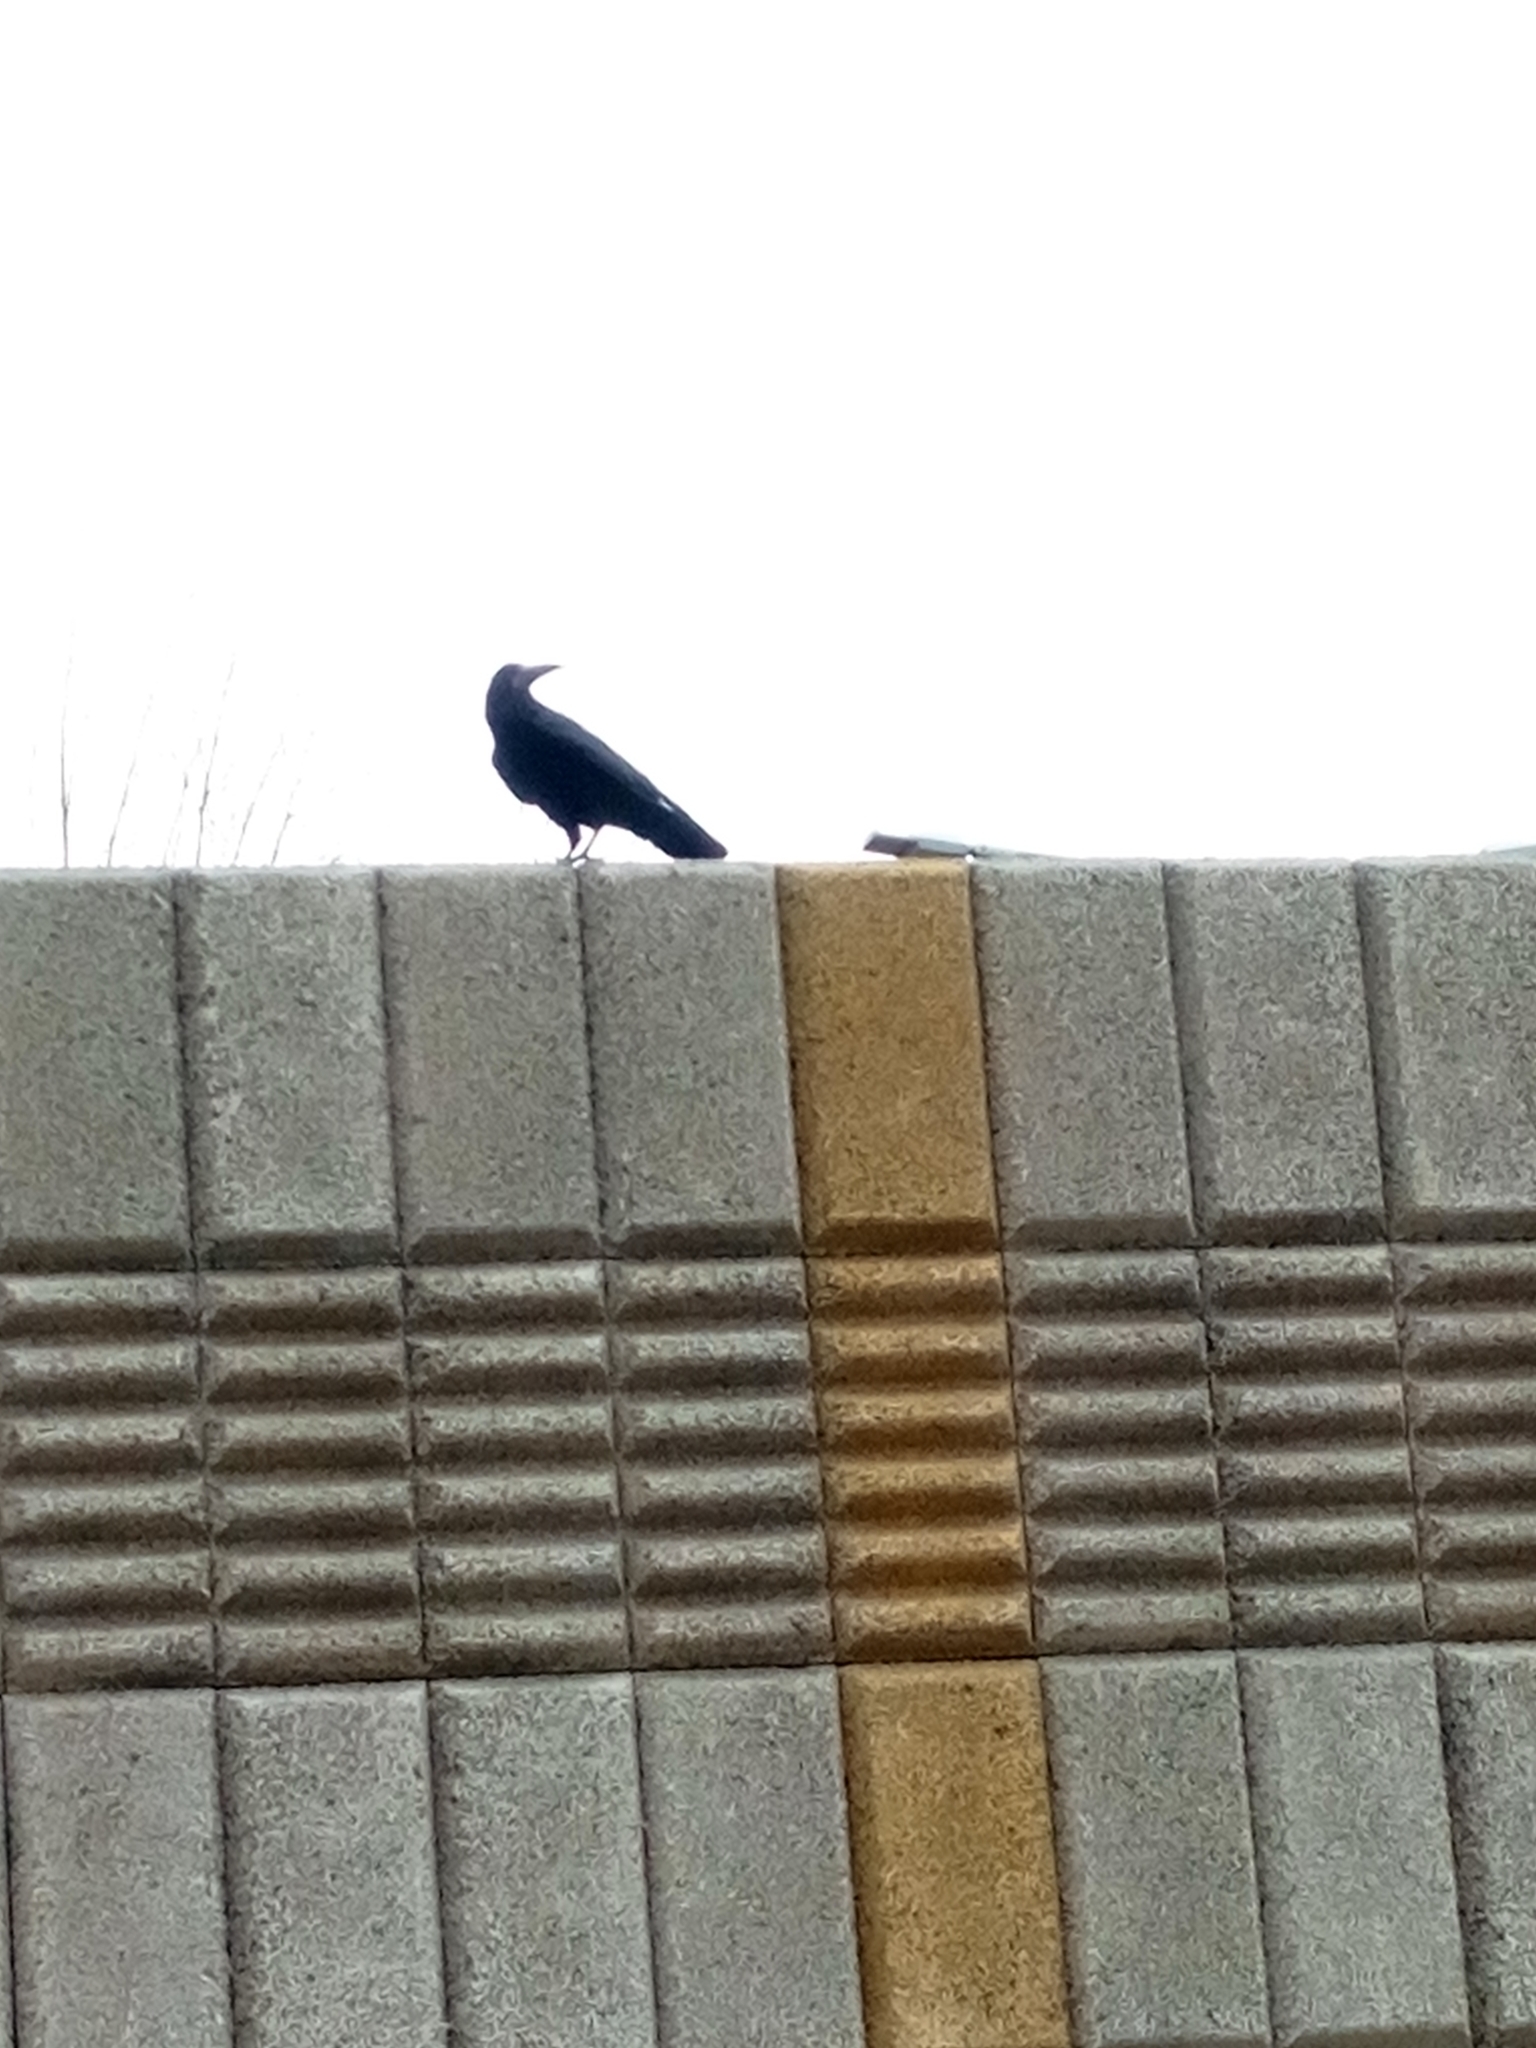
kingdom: Animalia
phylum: Chordata
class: Aves
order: Passeriformes
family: Corvidae
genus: Corvus
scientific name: Corvus frugilegus
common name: Rook
